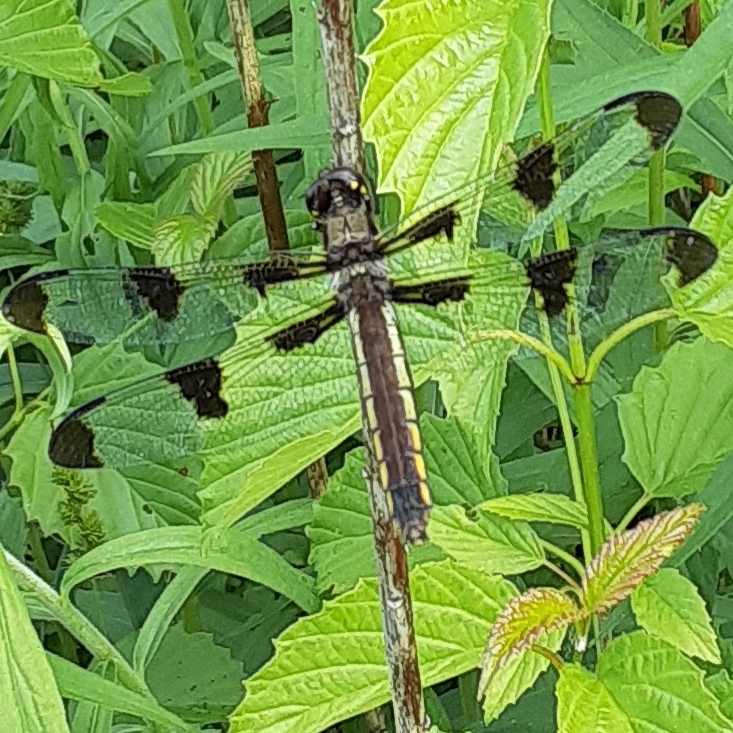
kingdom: Animalia
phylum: Arthropoda
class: Insecta
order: Odonata
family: Libellulidae
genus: Libellula
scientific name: Libellula pulchella
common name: Twelve-spotted skimmer
